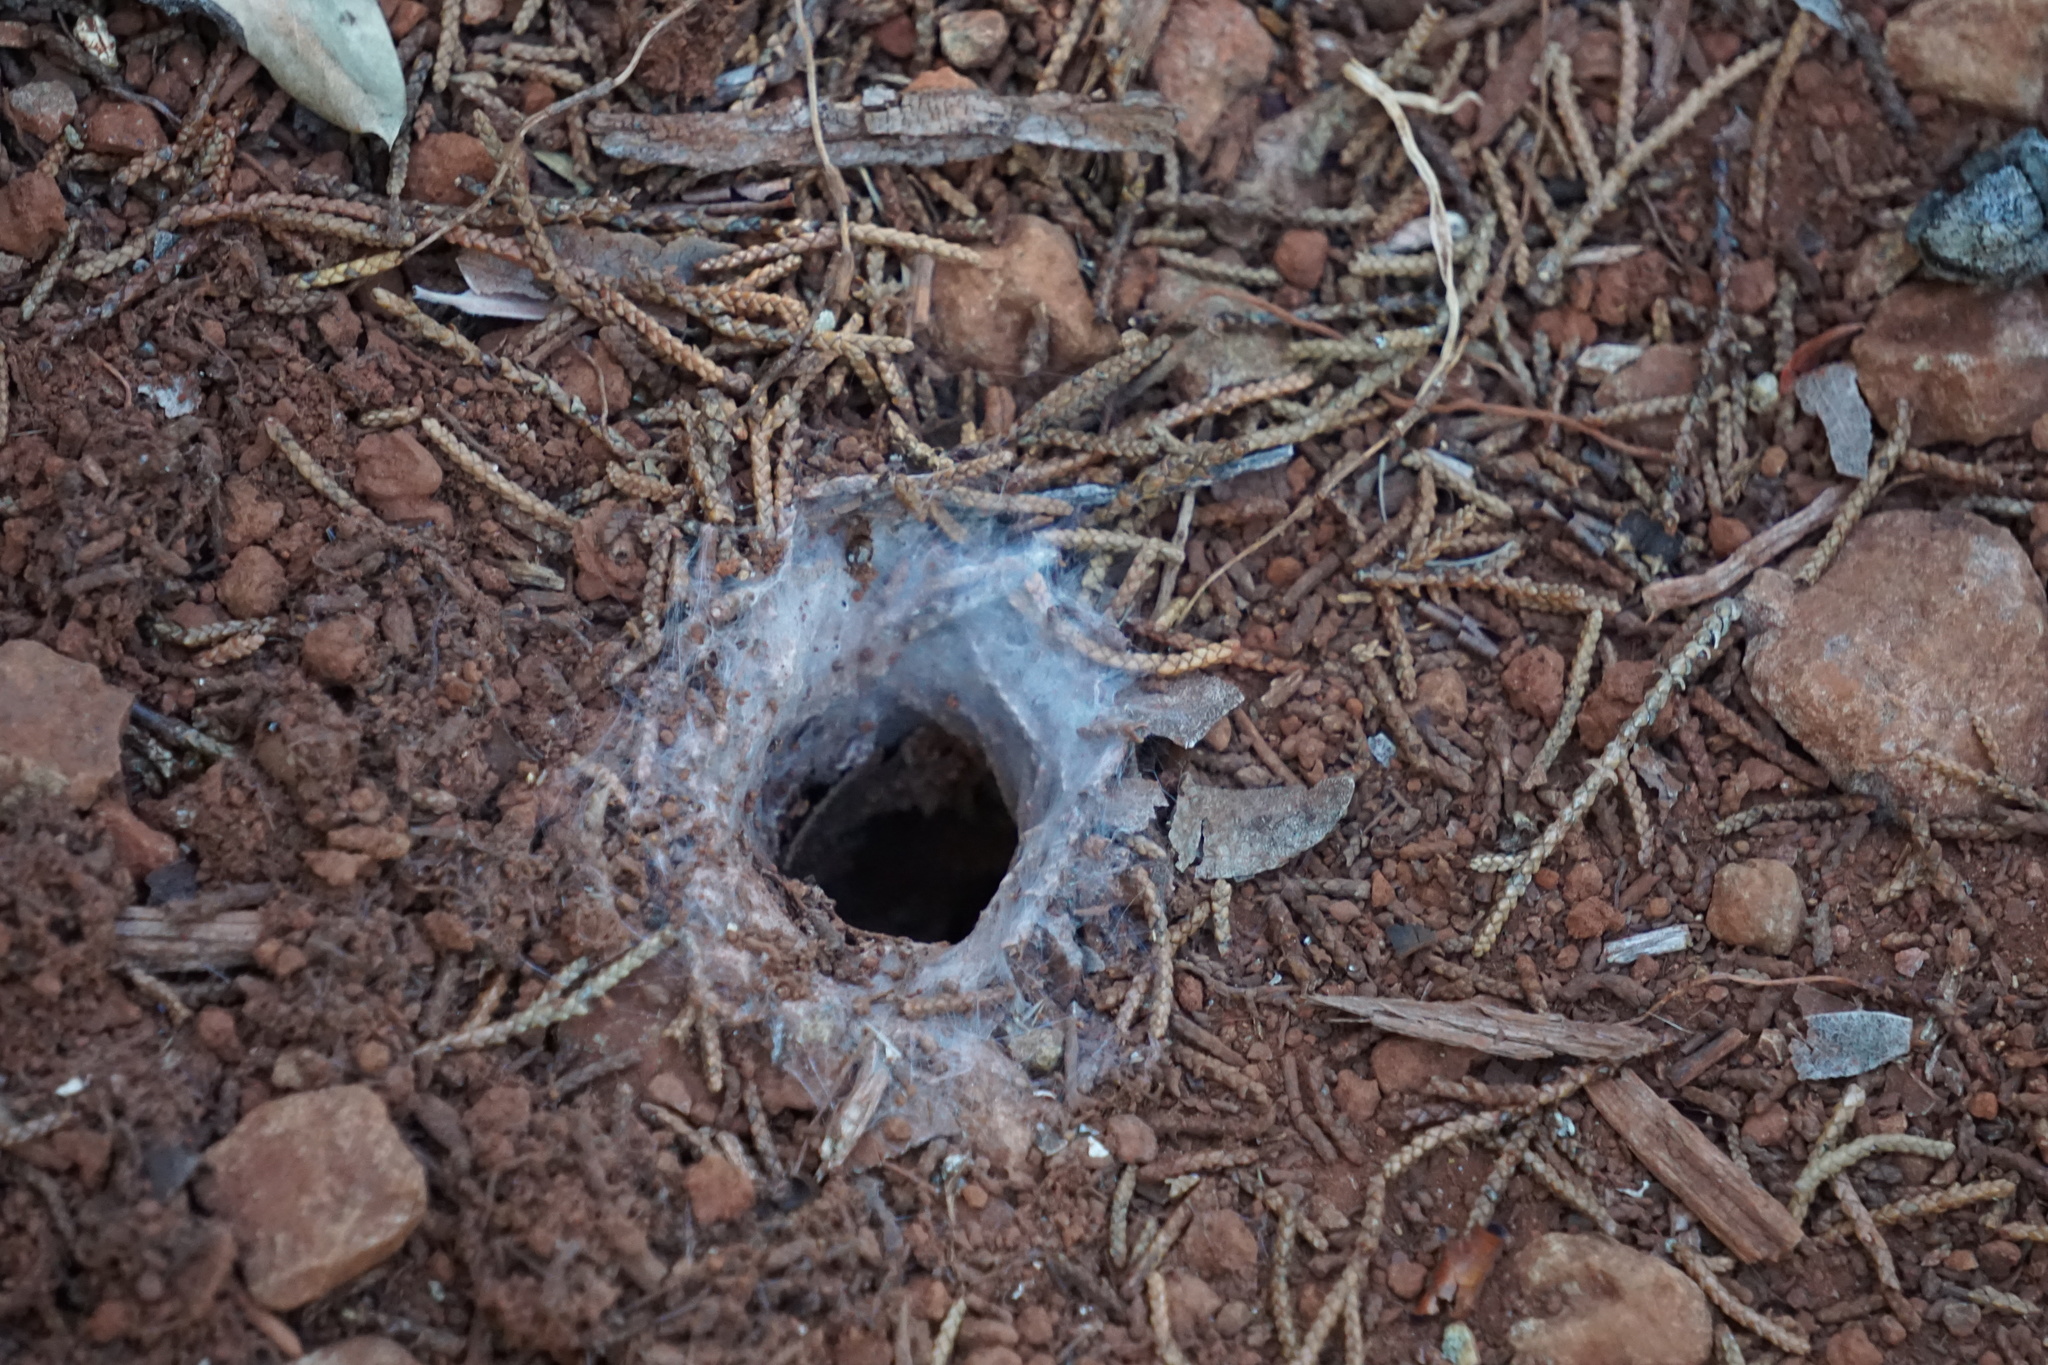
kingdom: Animalia
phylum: Arthropoda
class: Arachnida
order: Araneae
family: Nemesiidae
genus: Calisoga
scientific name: Calisoga longitarsis
